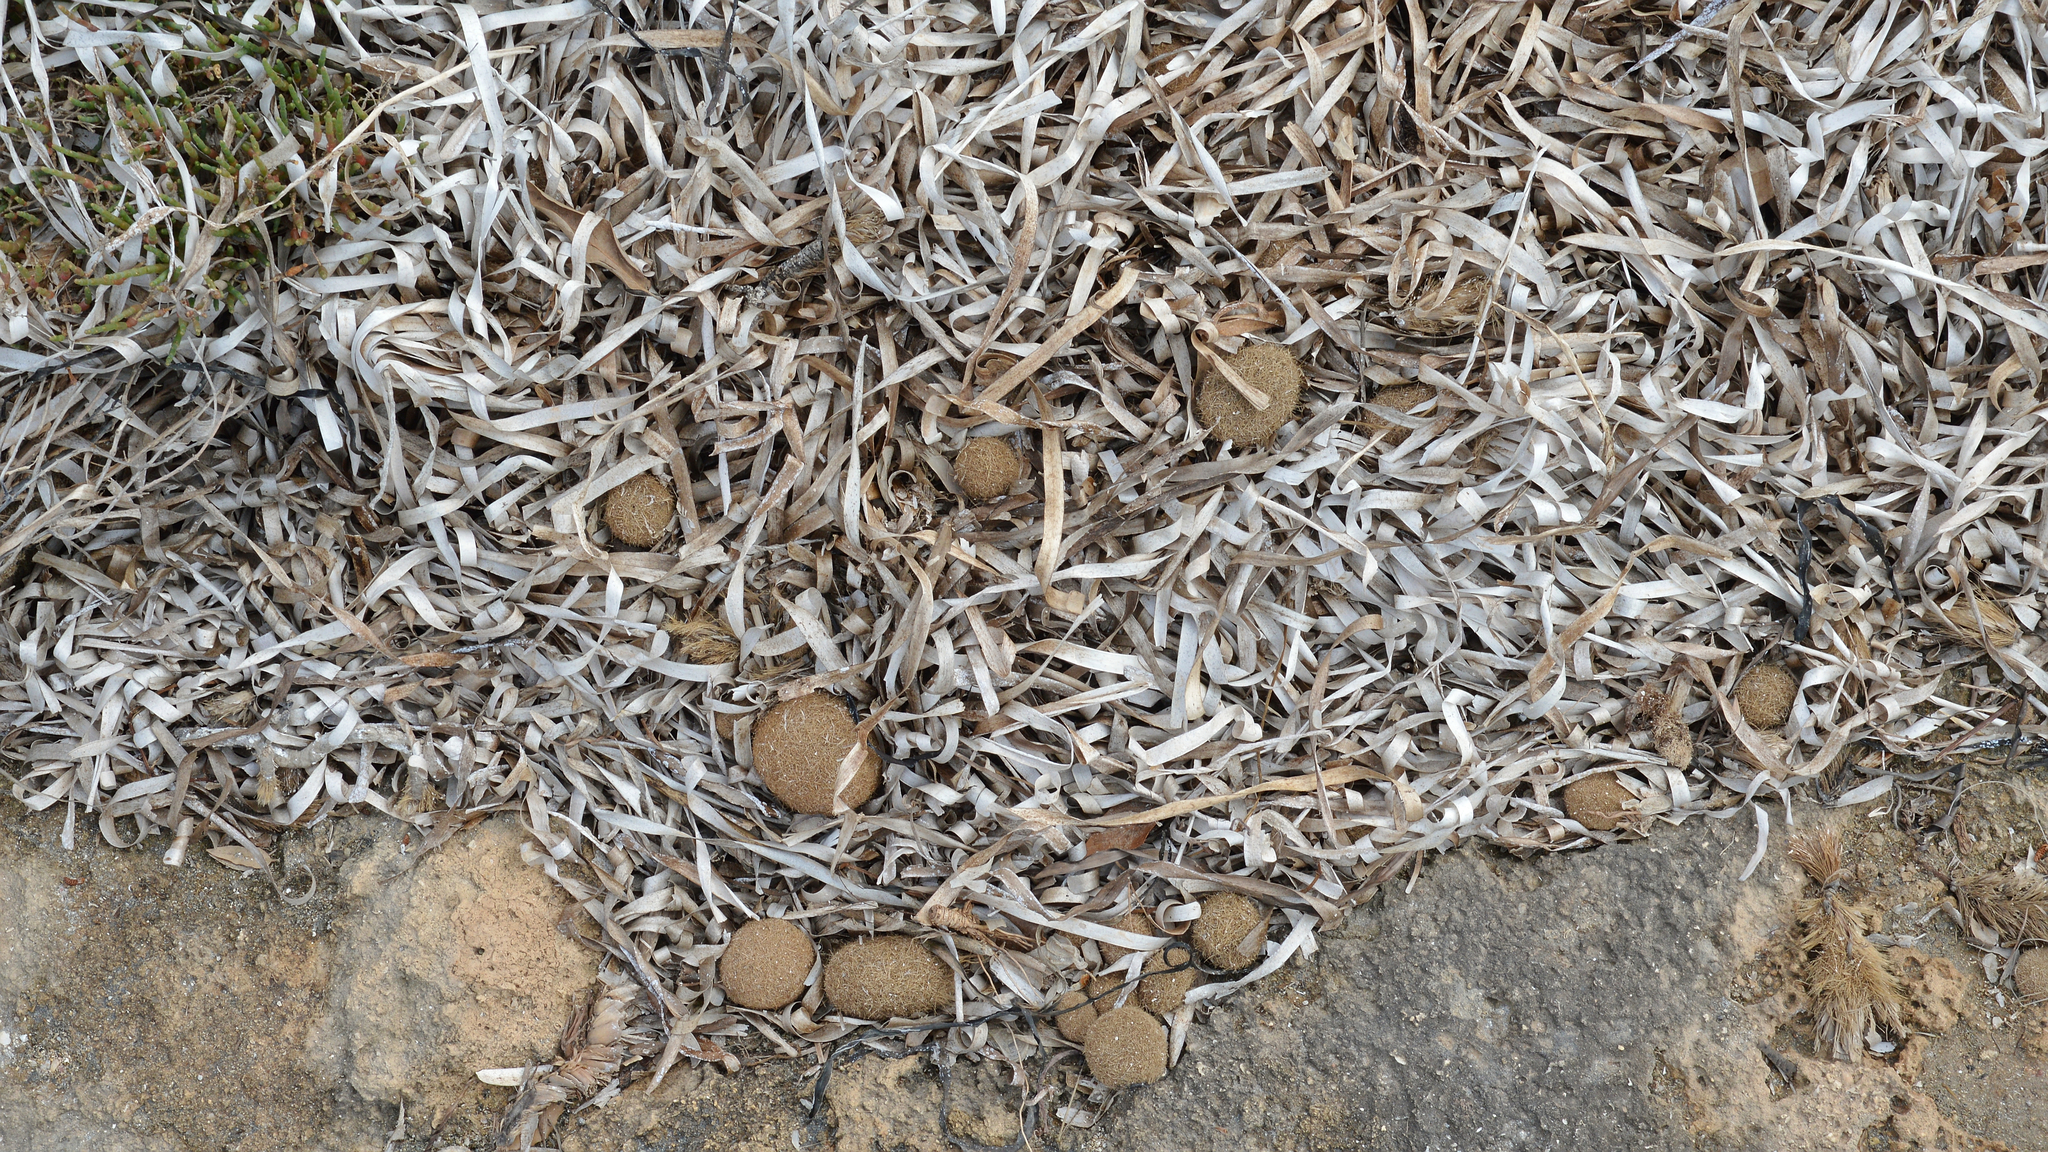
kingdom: Plantae
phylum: Tracheophyta
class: Liliopsida
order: Alismatales
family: Posidoniaceae
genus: Posidonia
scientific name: Posidonia oceanica
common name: Mediterranean tapeweed
